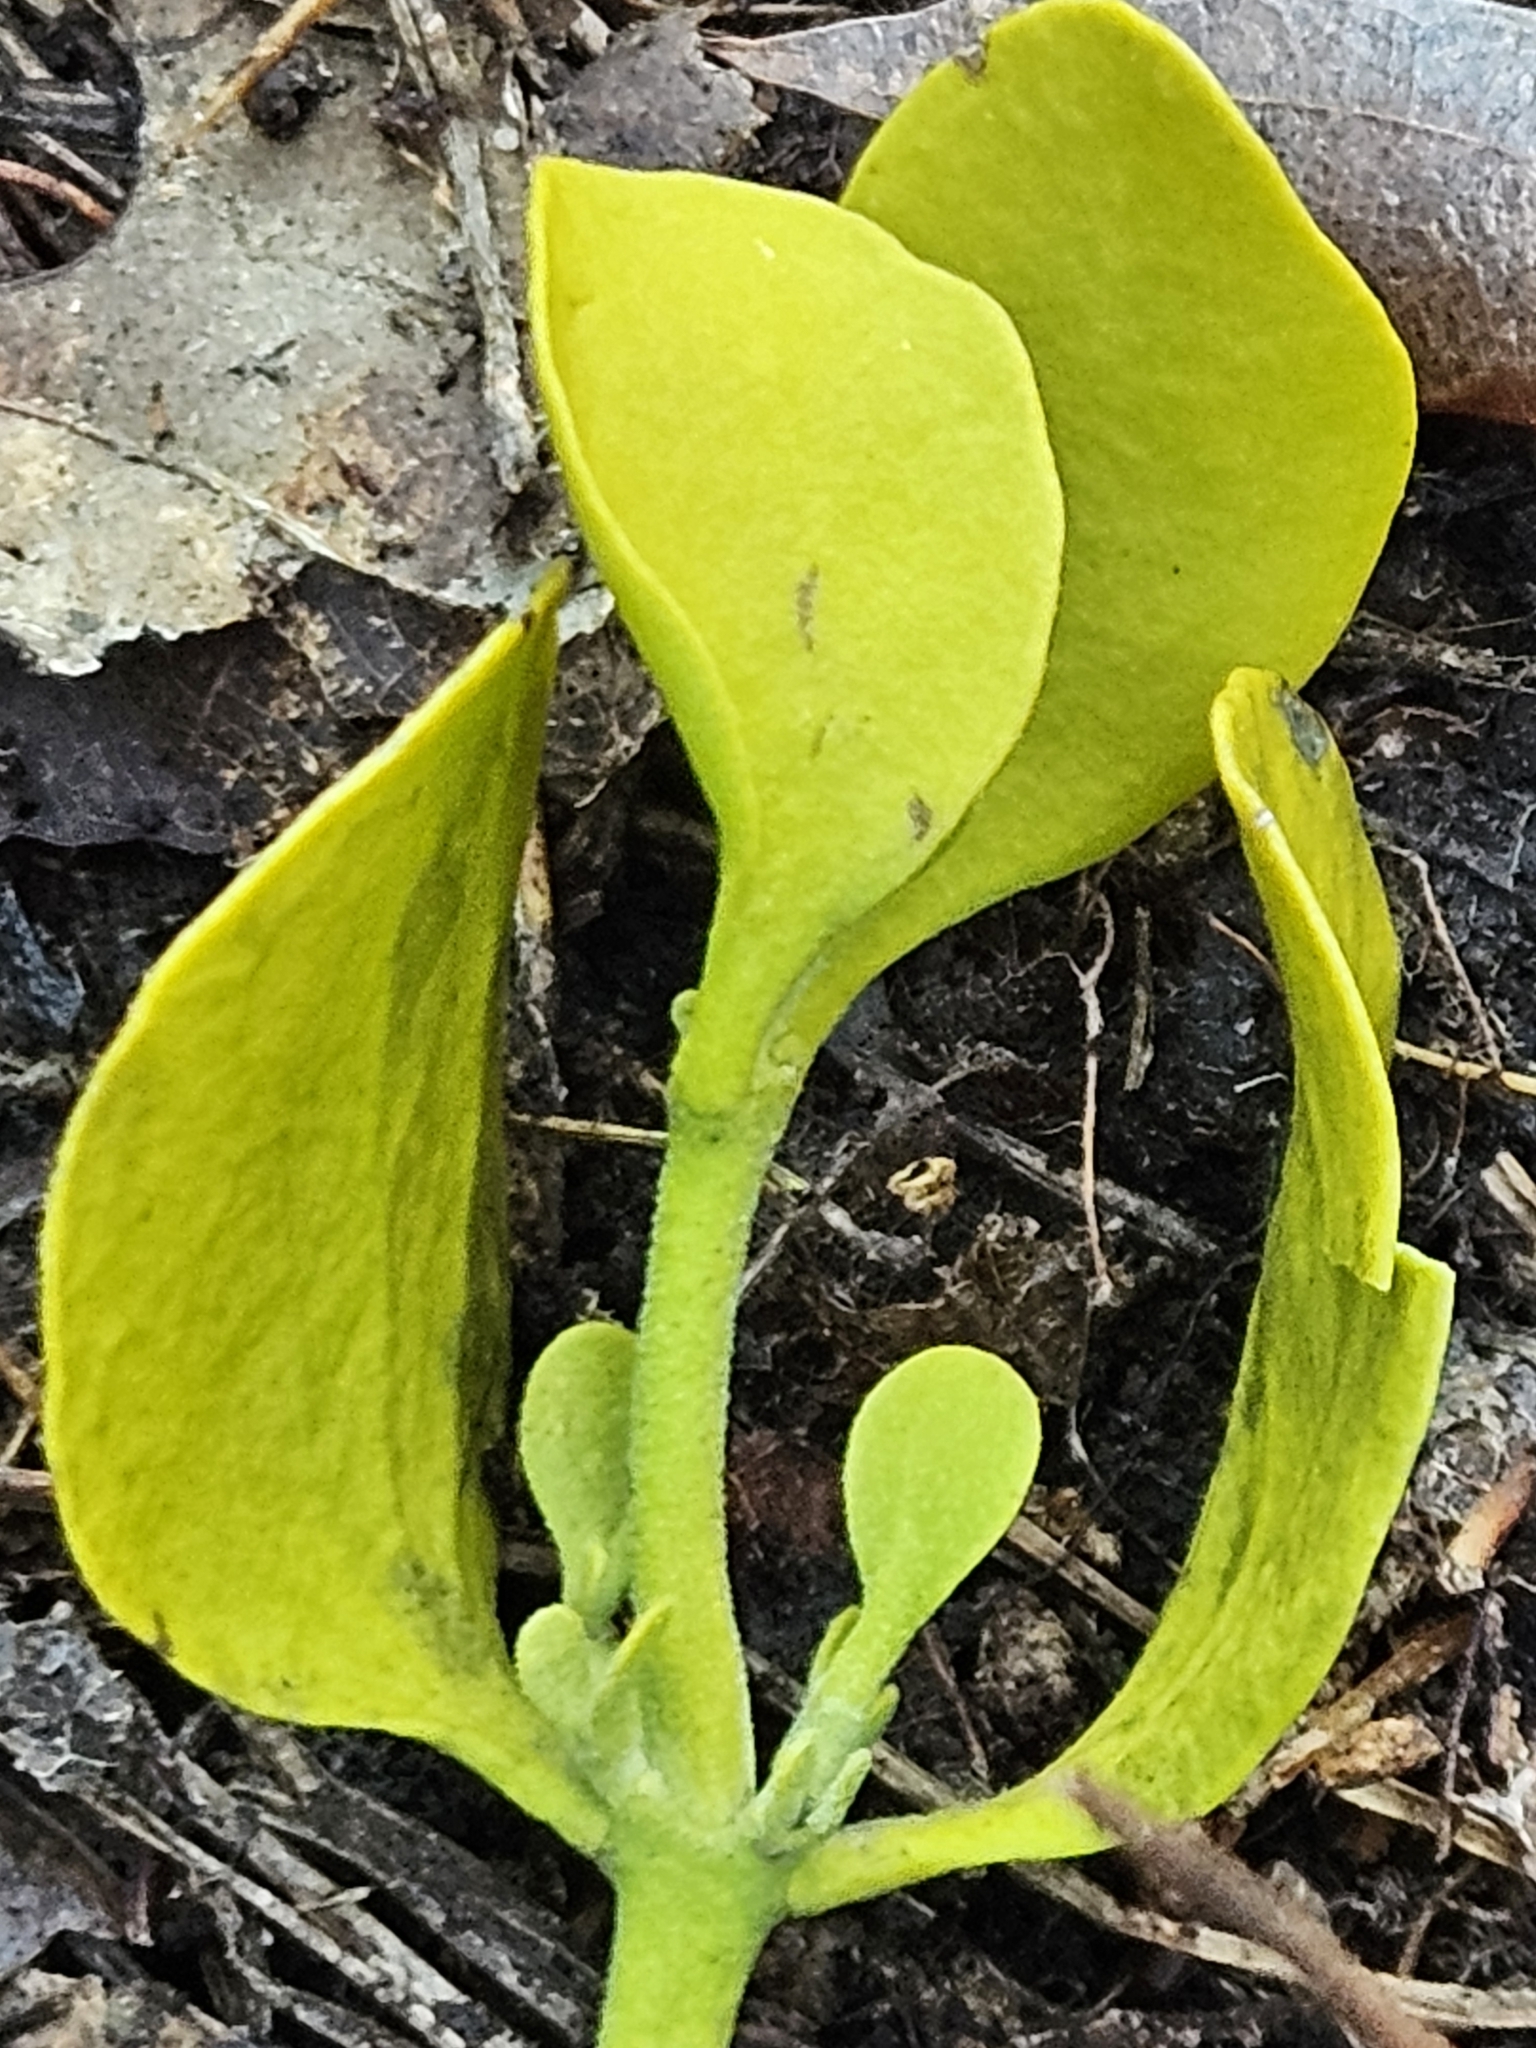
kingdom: Plantae
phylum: Tracheophyta
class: Magnoliopsida
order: Santalales
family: Viscaceae
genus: Phoradendron
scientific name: Phoradendron leucarpum
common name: Pacific mistletoe
